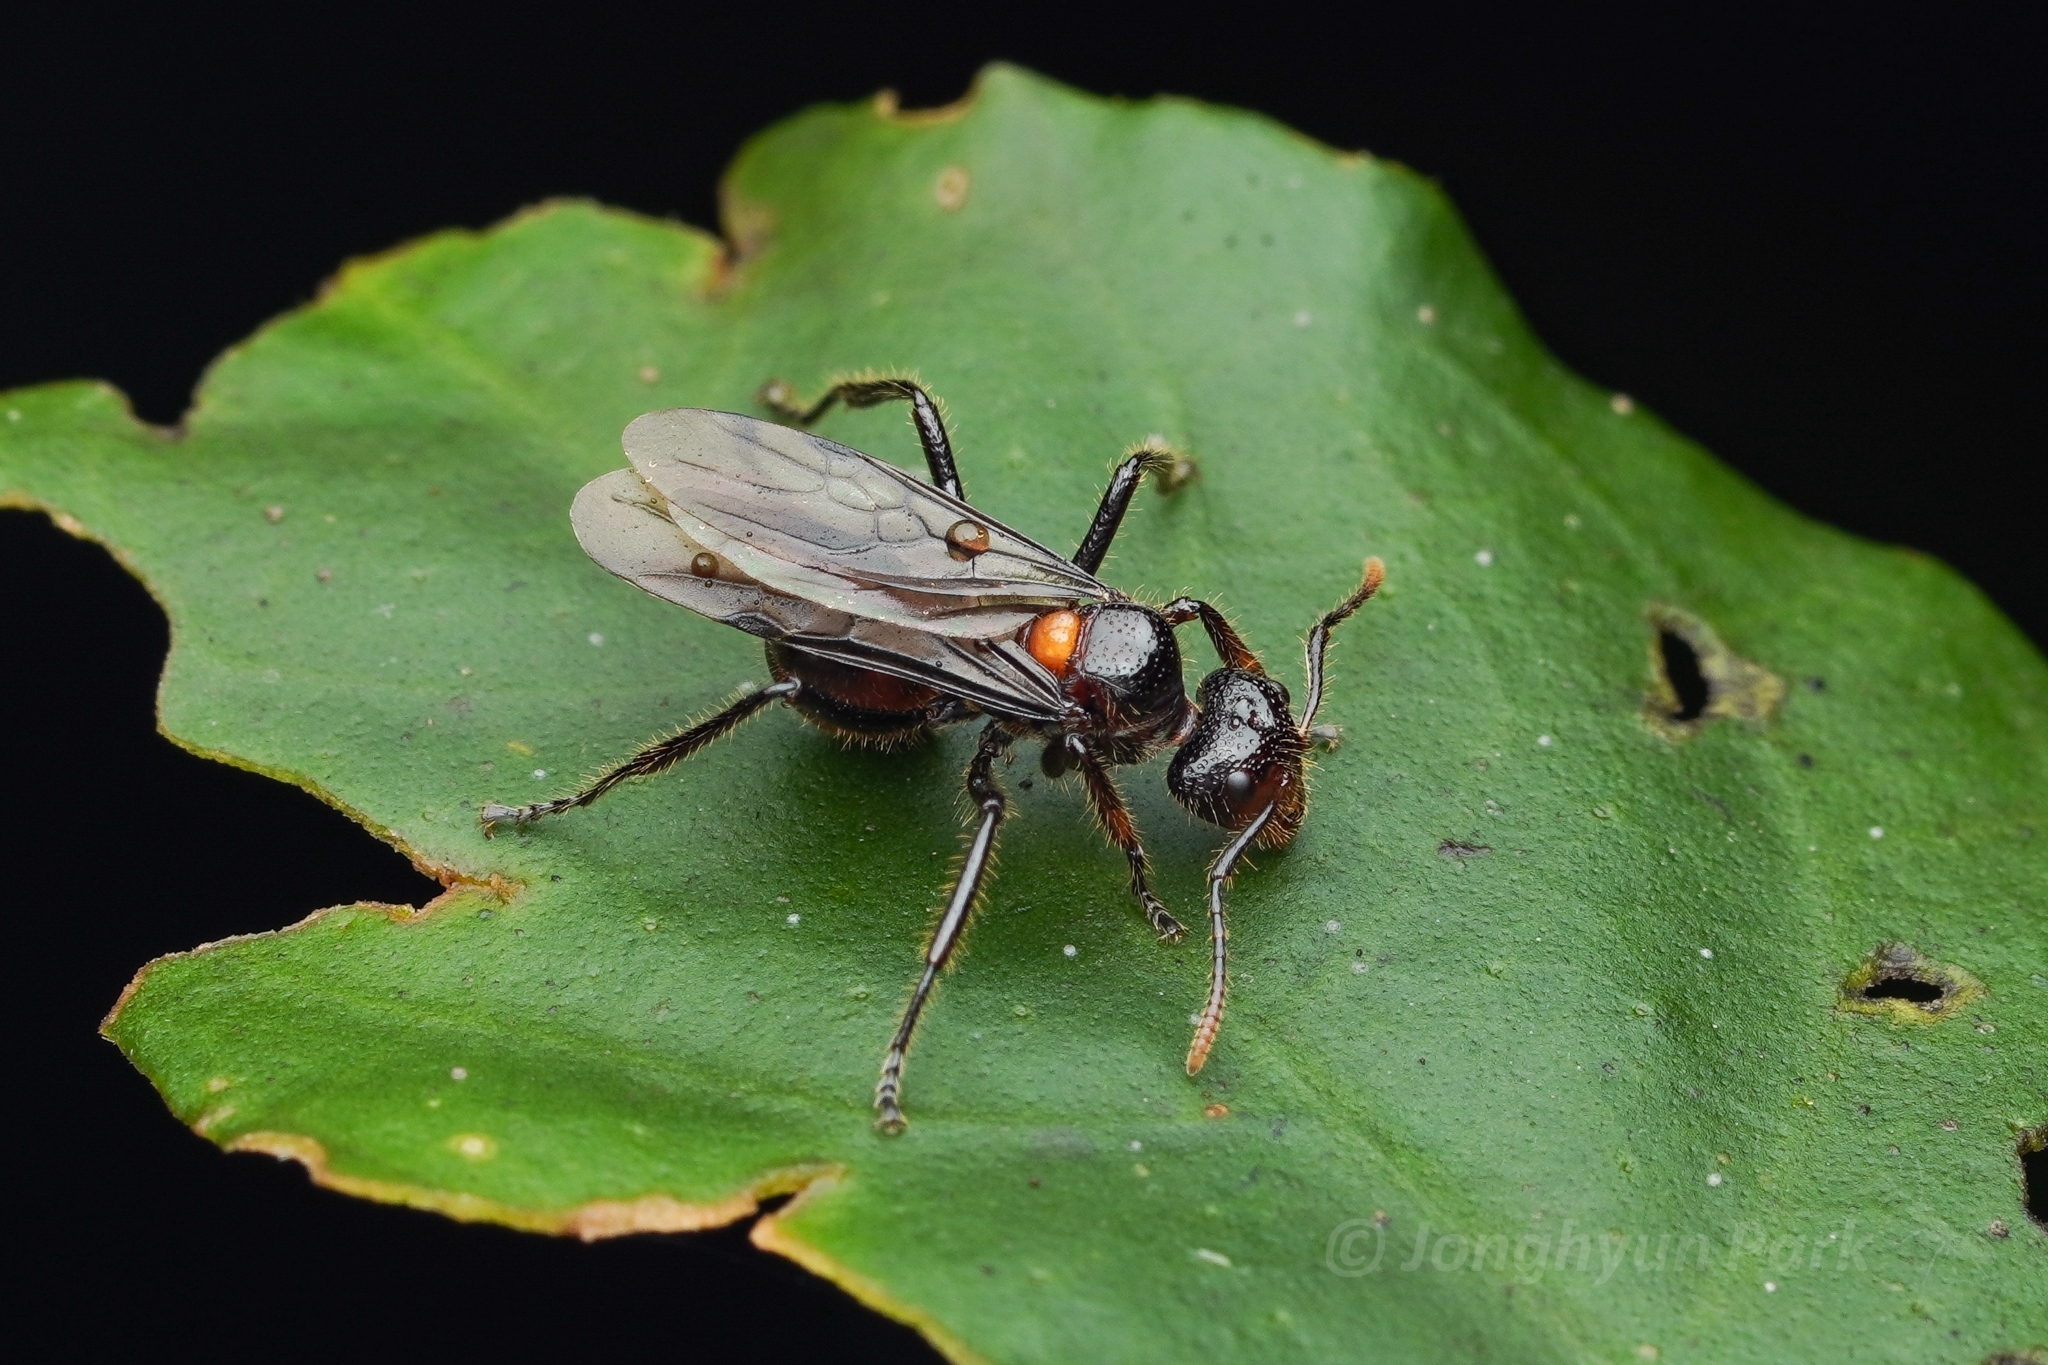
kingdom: Animalia
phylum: Arthropoda
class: Insecta
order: Hymenoptera
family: Formicidae
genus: Dolichoderus
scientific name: Dolichoderus sulcaticeps
